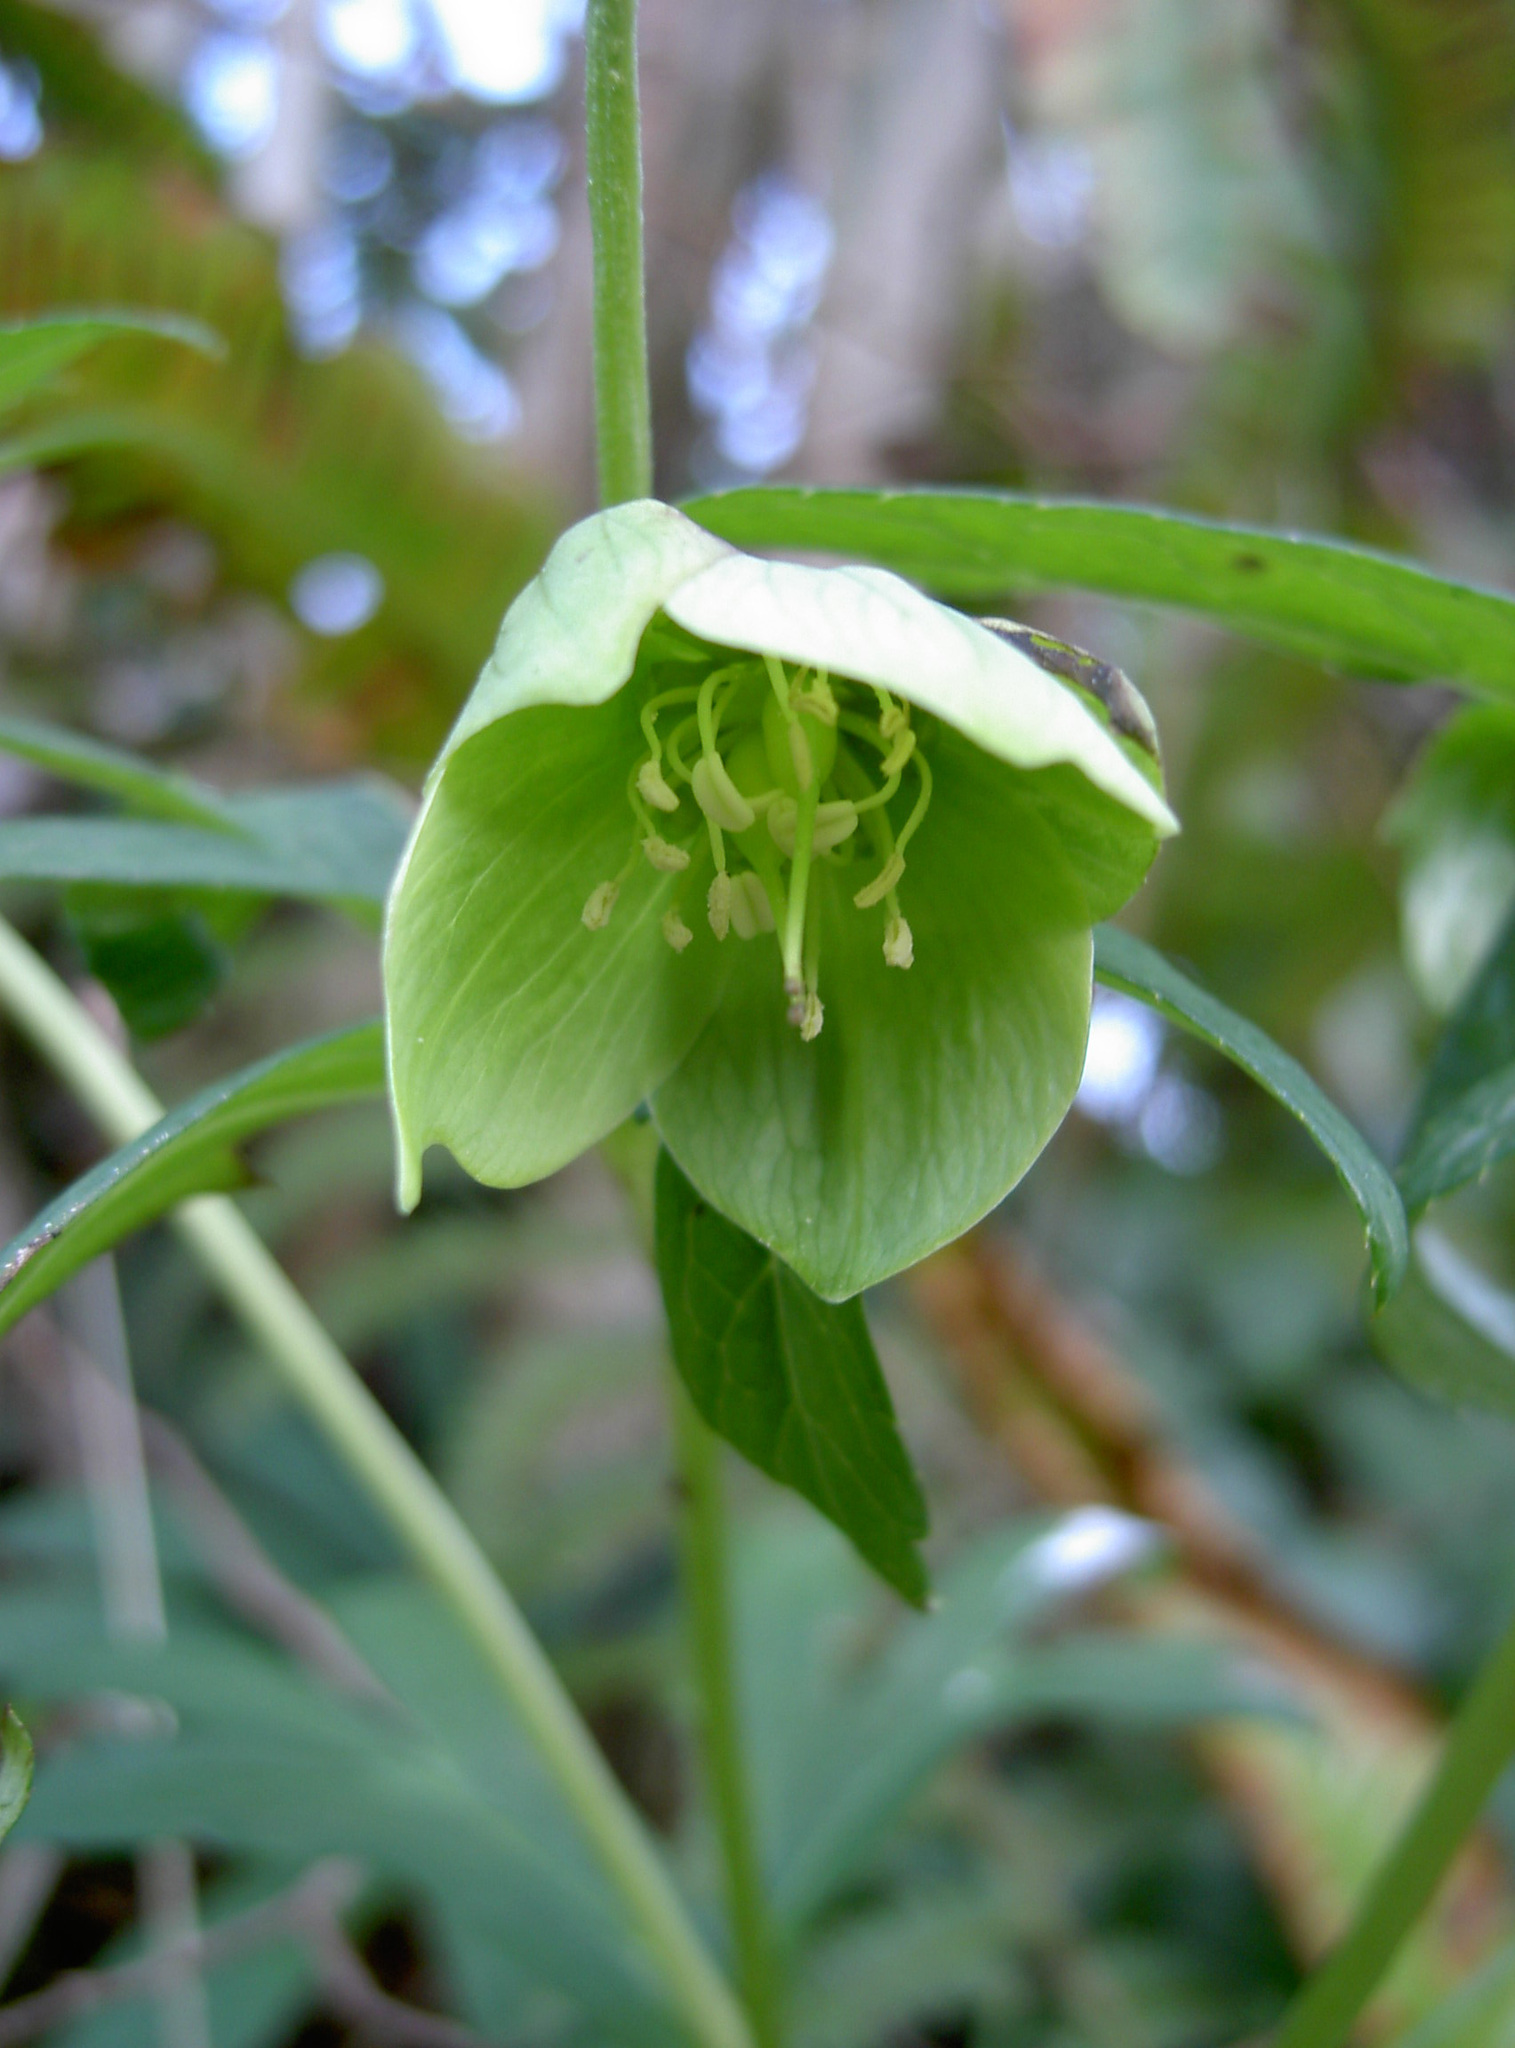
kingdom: Plantae
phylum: Tracheophyta
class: Magnoliopsida
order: Ranunculales
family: Ranunculaceae
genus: Helleborus
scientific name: Helleborus viridis
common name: Green hellebore
